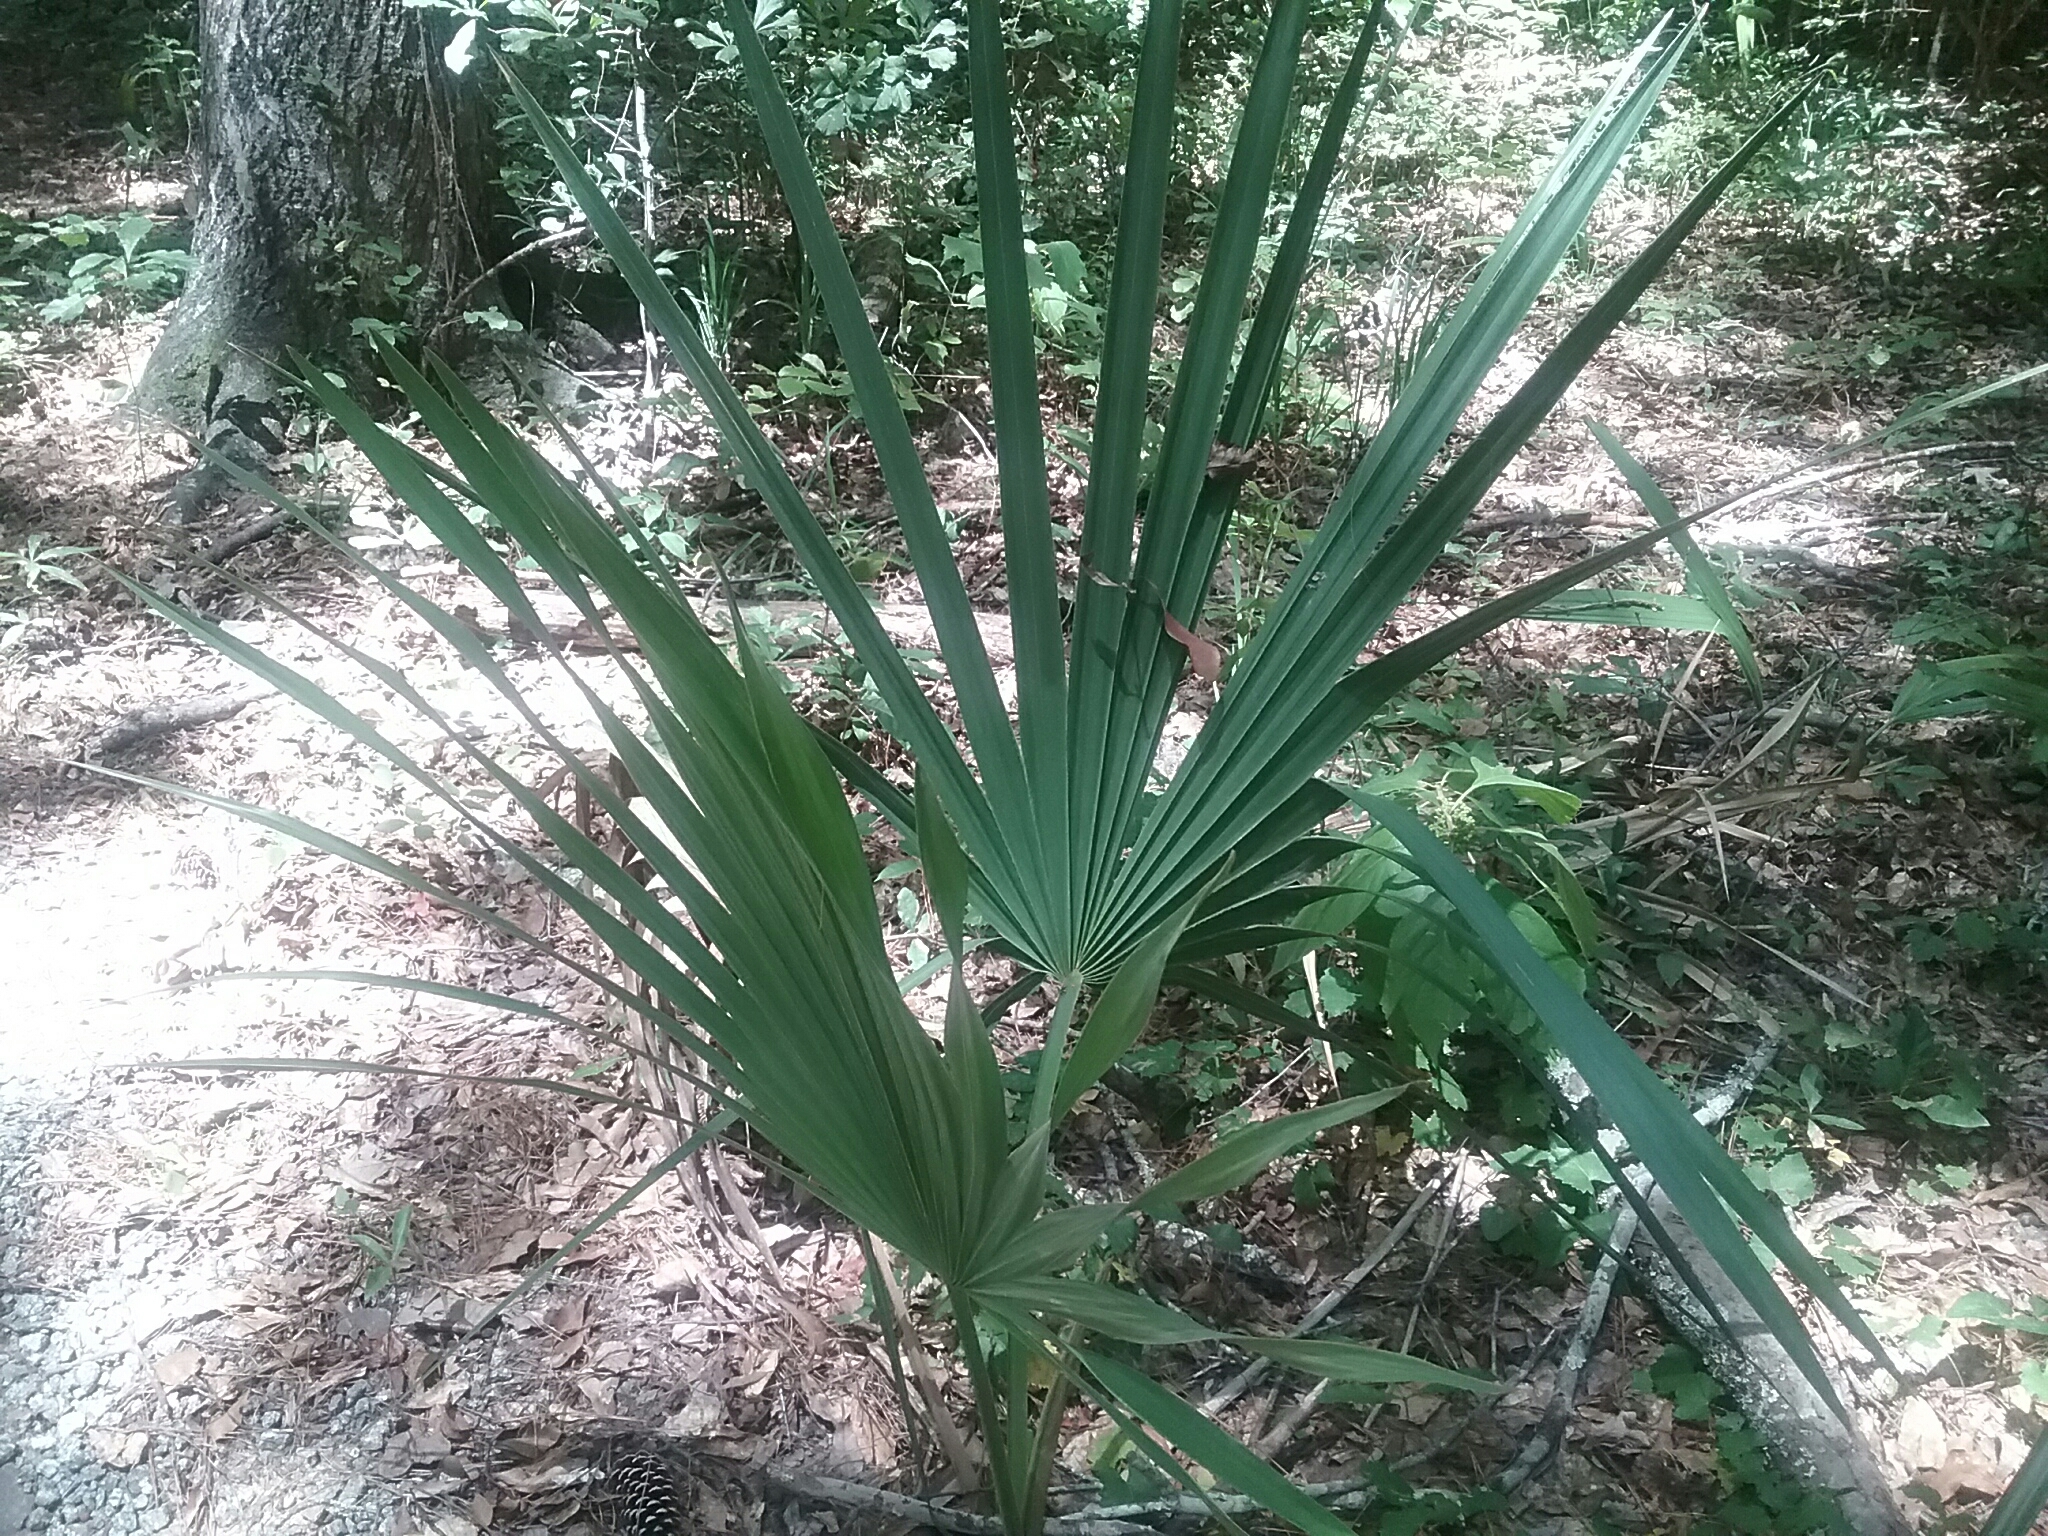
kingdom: Plantae
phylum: Tracheophyta
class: Liliopsida
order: Arecales
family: Arecaceae
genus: Sabal
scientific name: Sabal minor
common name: Dwarf palmetto
